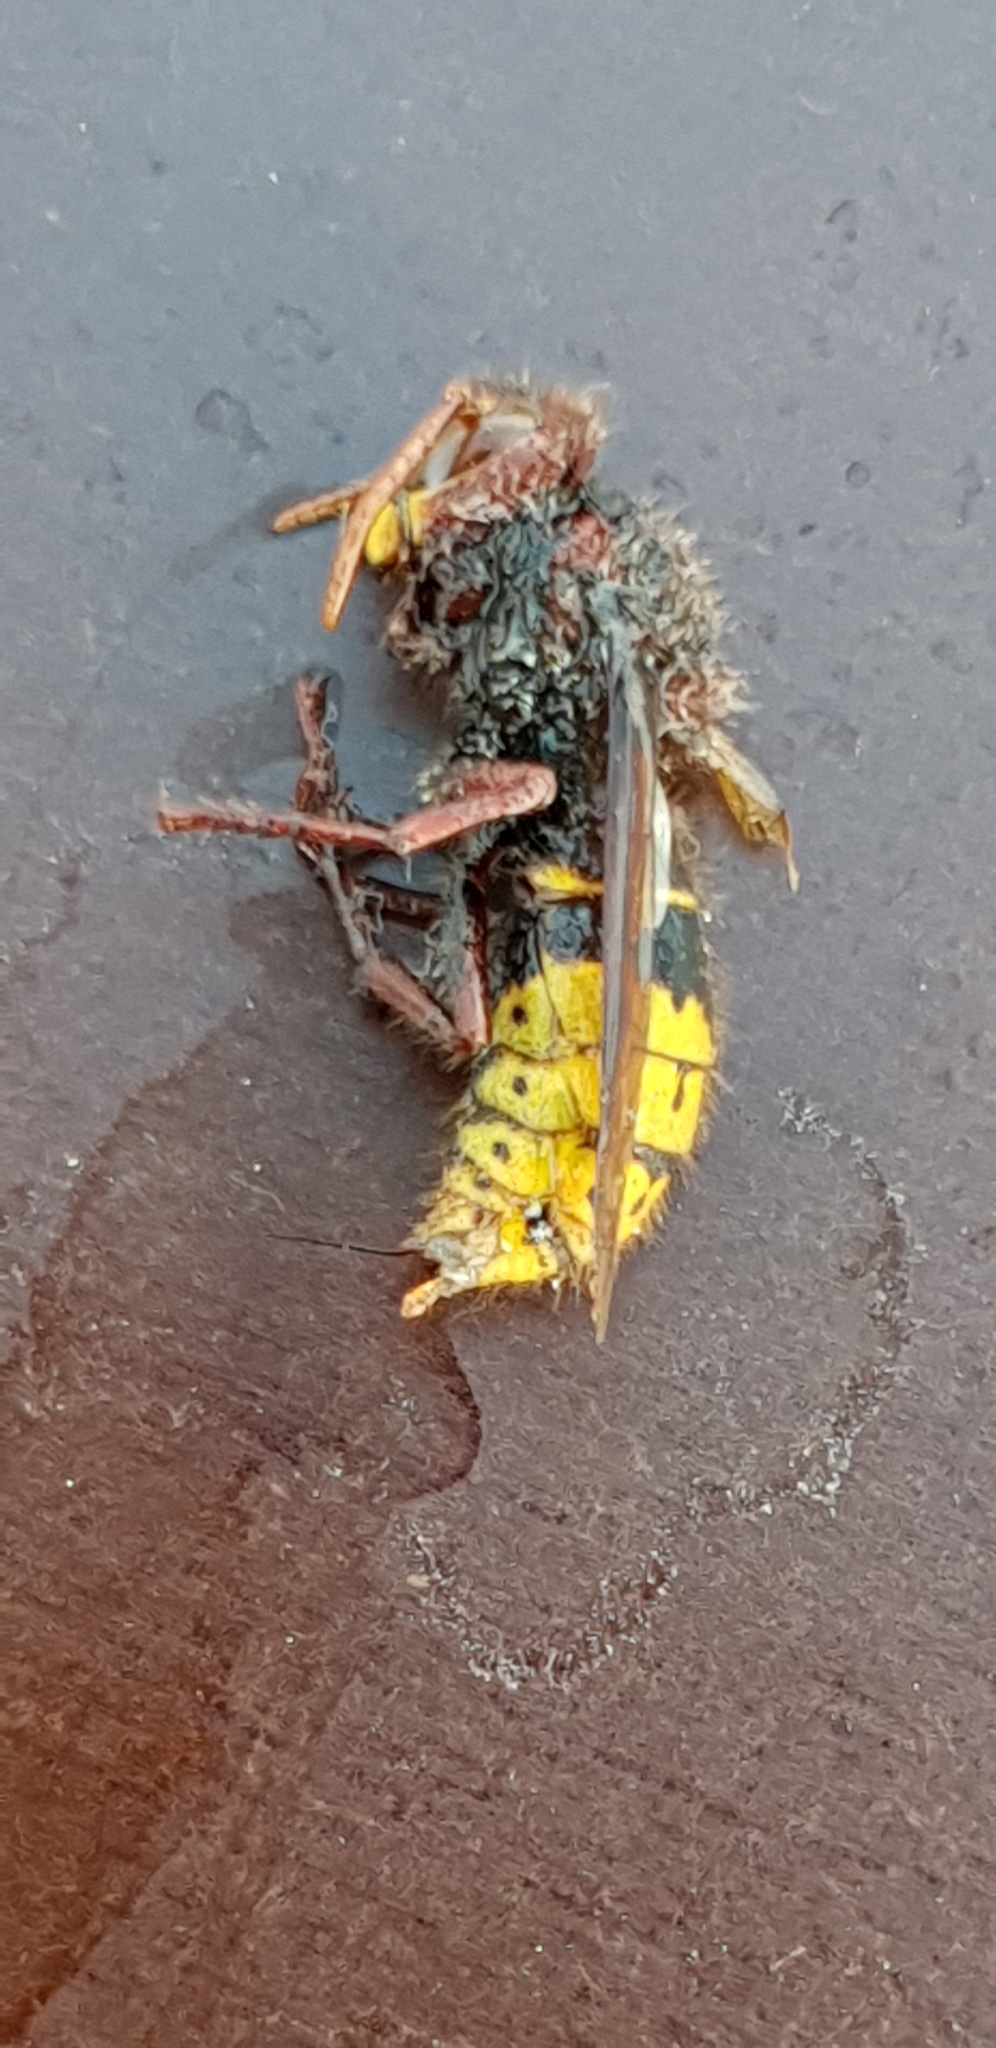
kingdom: Animalia
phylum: Arthropoda
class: Insecta
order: Hymenoptera
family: Vespidae
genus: Vespa
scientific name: Vespa crabro
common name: Hornet
